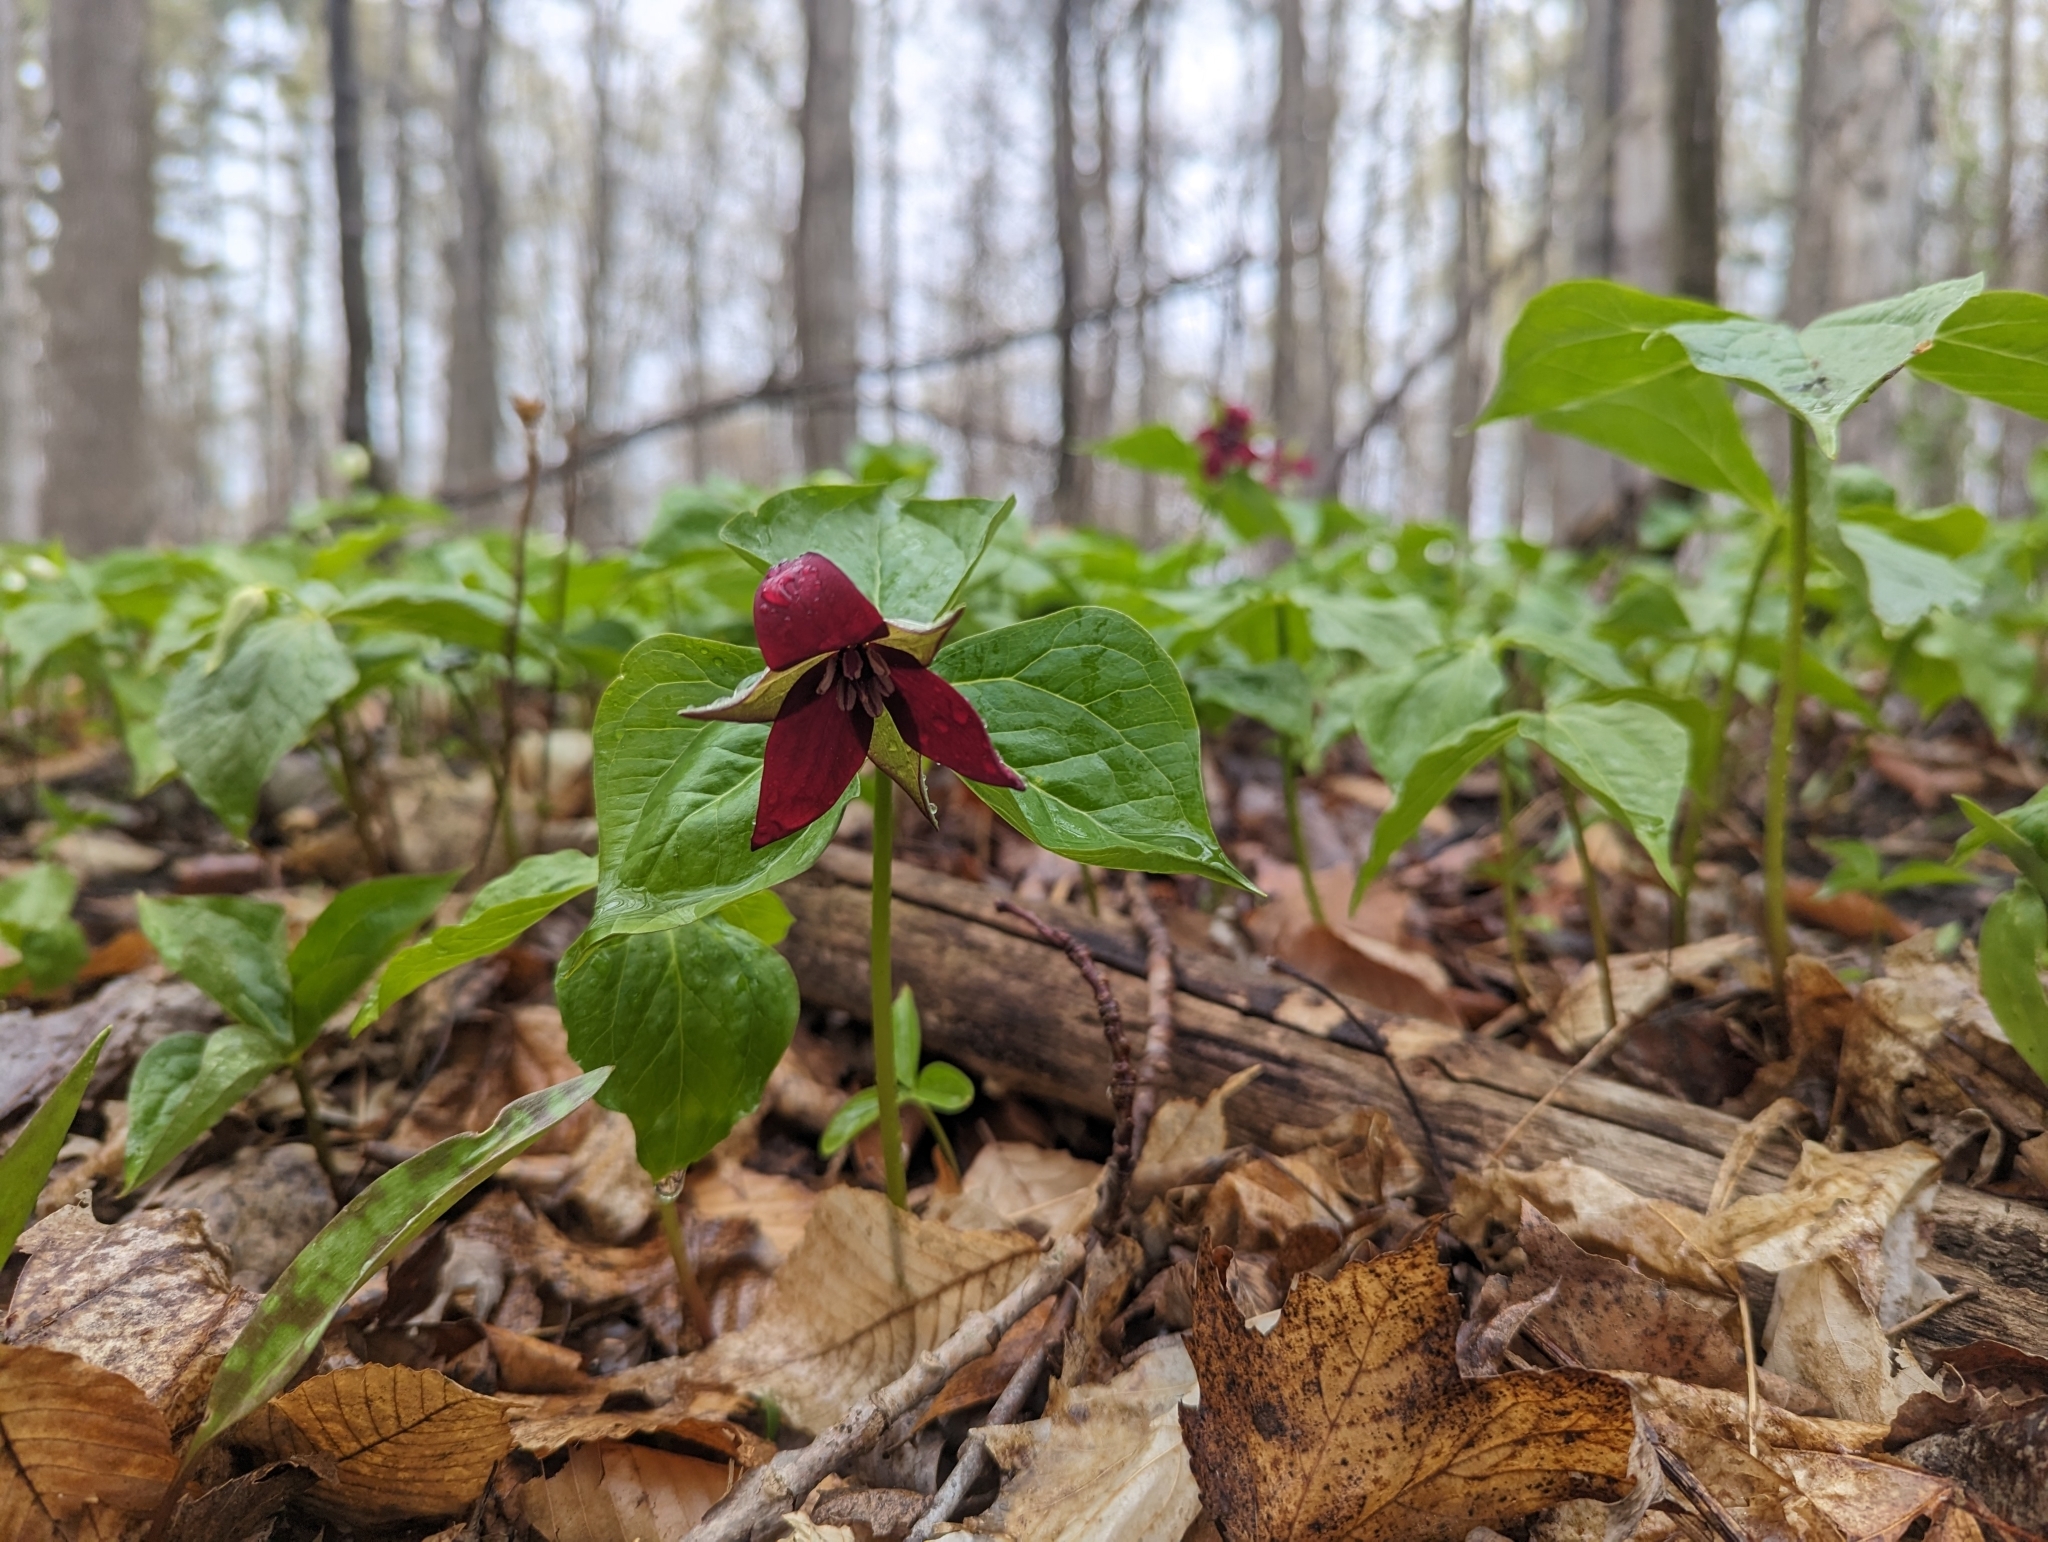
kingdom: Plantae
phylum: Tracheophyta
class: Liliopsida
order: Liliales
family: Melanthiaceae
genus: Trillium
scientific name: Trillium erectum
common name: Purple trillium
